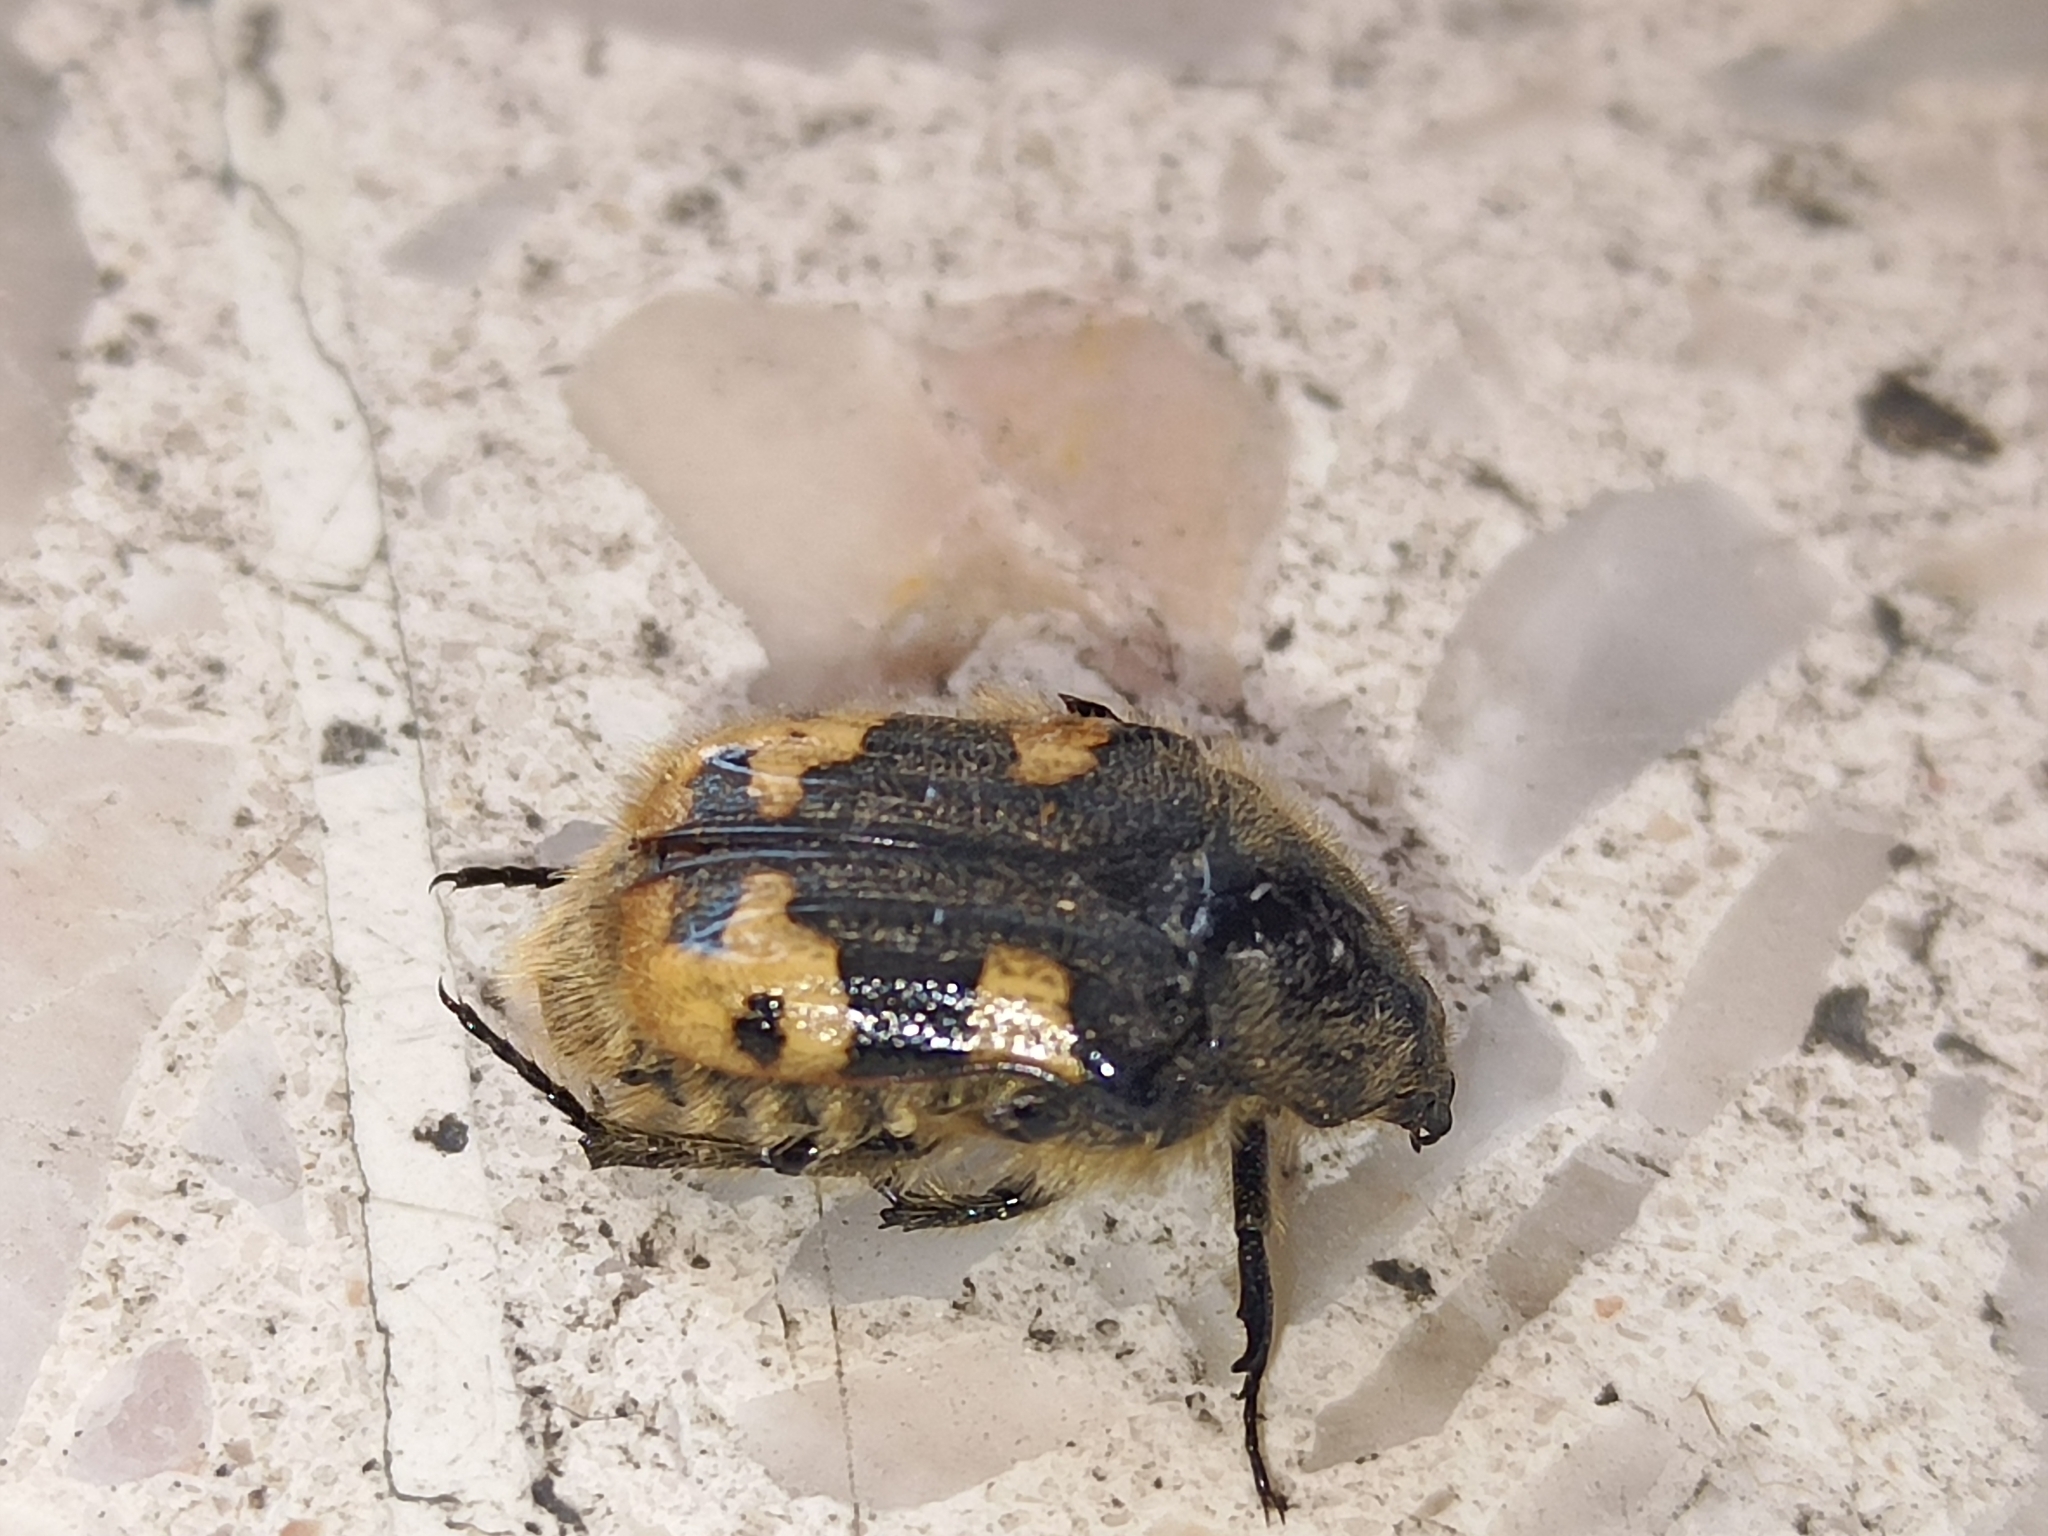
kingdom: Animalia
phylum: Arthropoda
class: Insecta
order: Coleoptera
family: Scarabaeidae
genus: Euphoria
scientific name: Euphoria basalis
